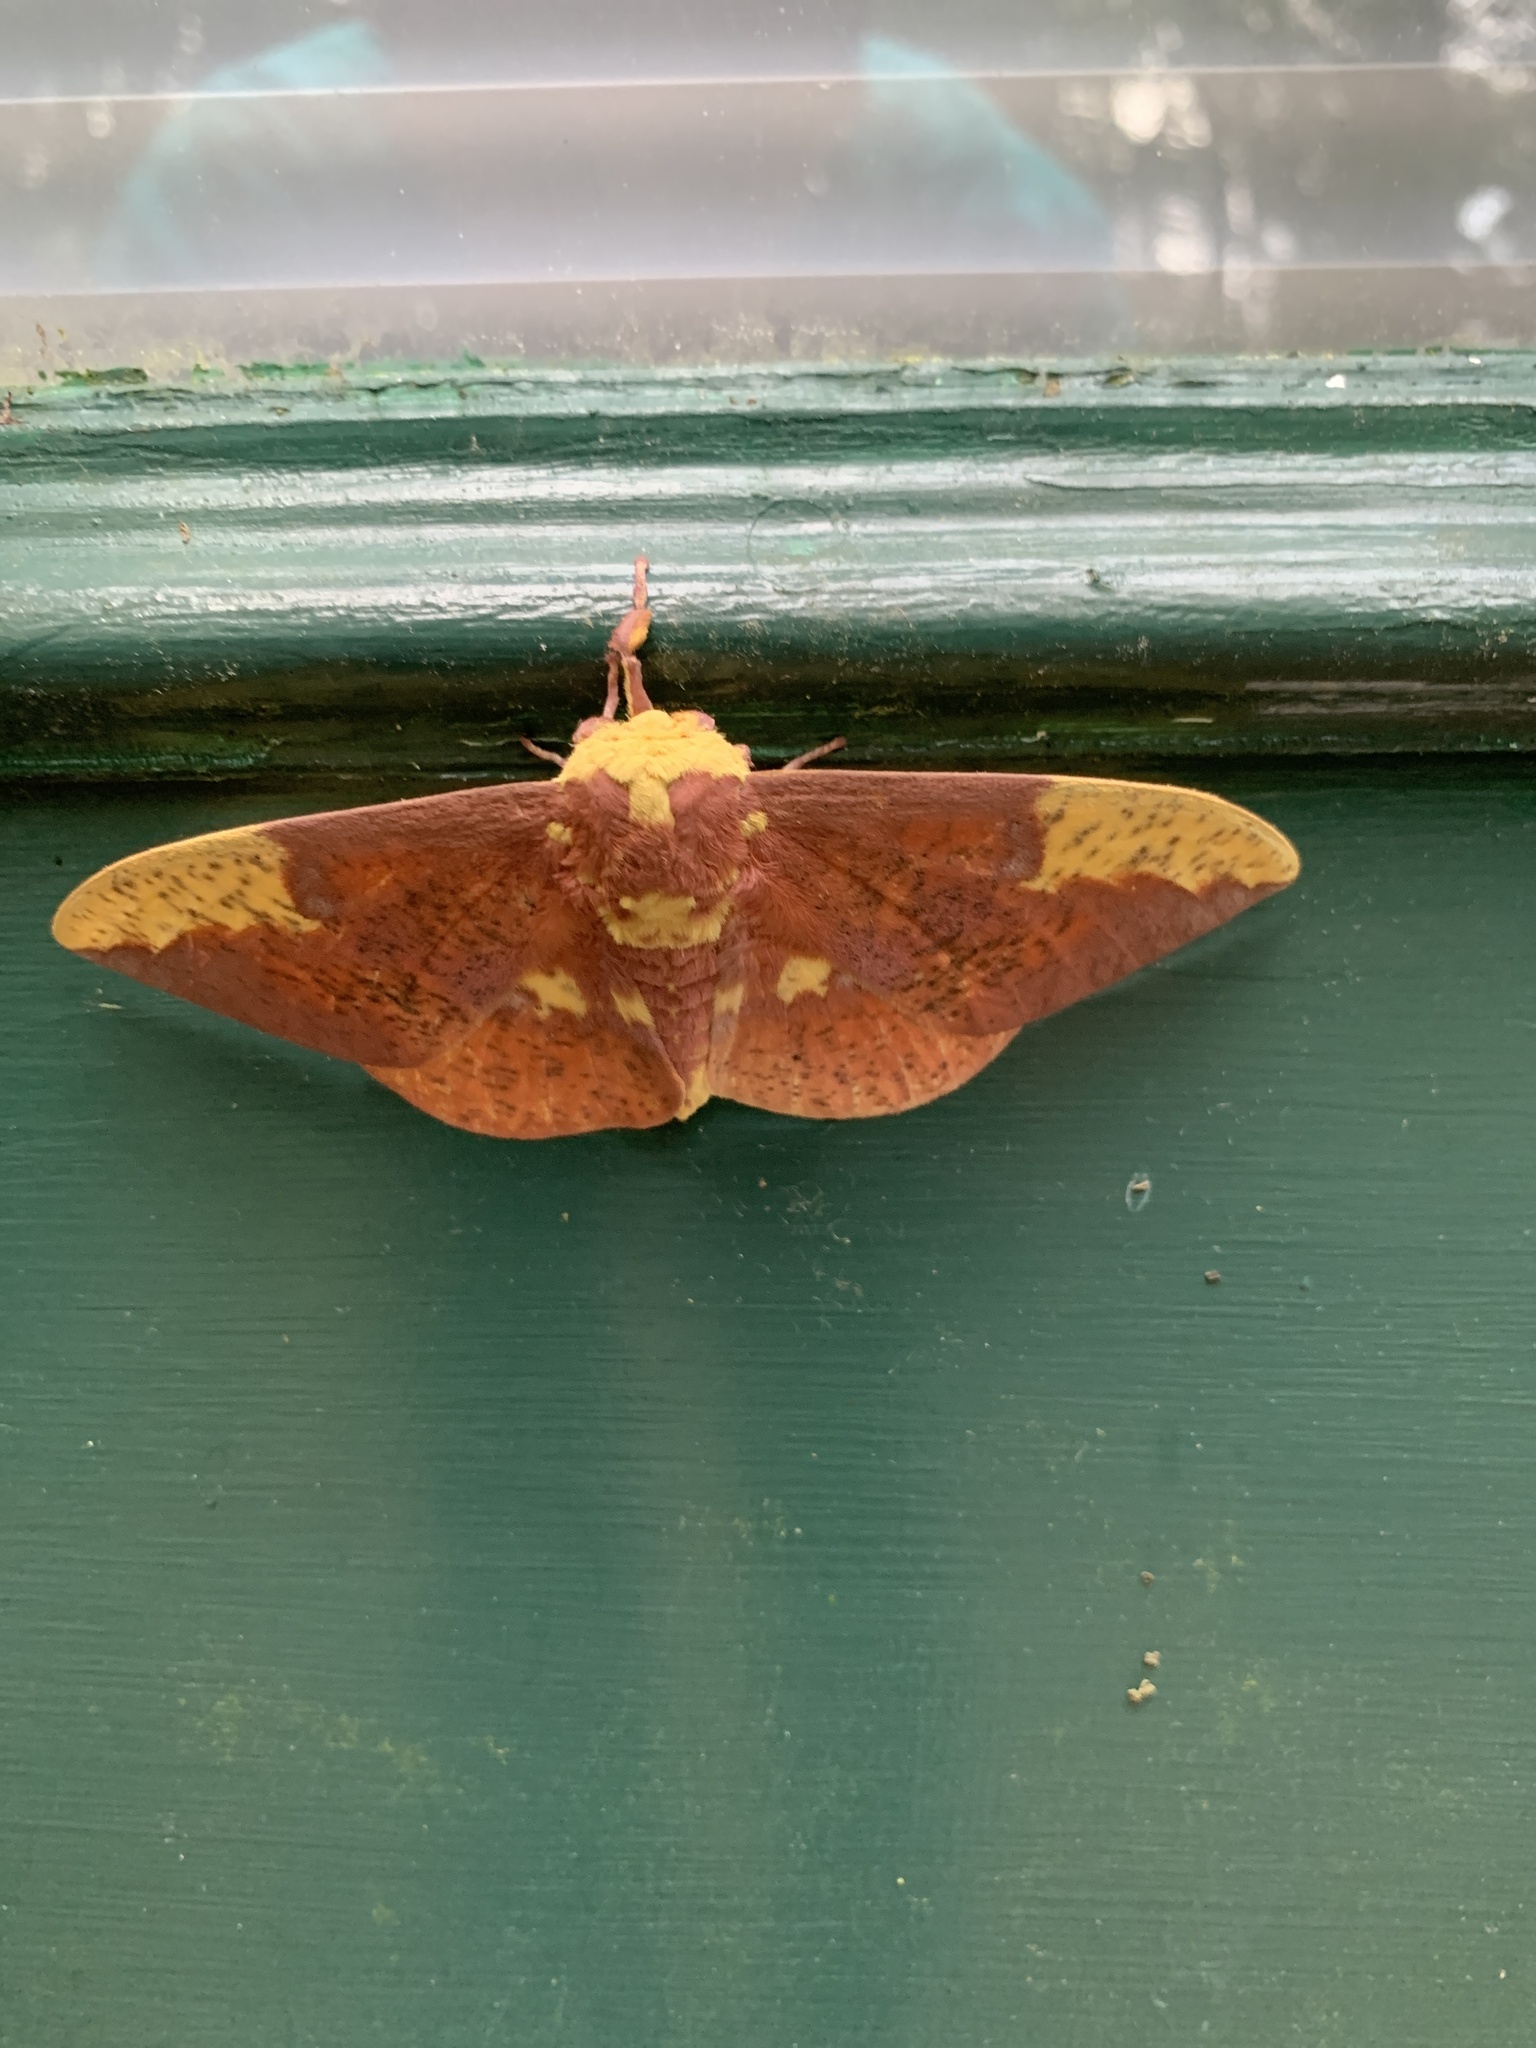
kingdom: Animalia
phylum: Arthropoda
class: Insecta
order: Lepidoptera
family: Saturniidae
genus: Eacles
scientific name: Eacles imperialis
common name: Imperial moth
